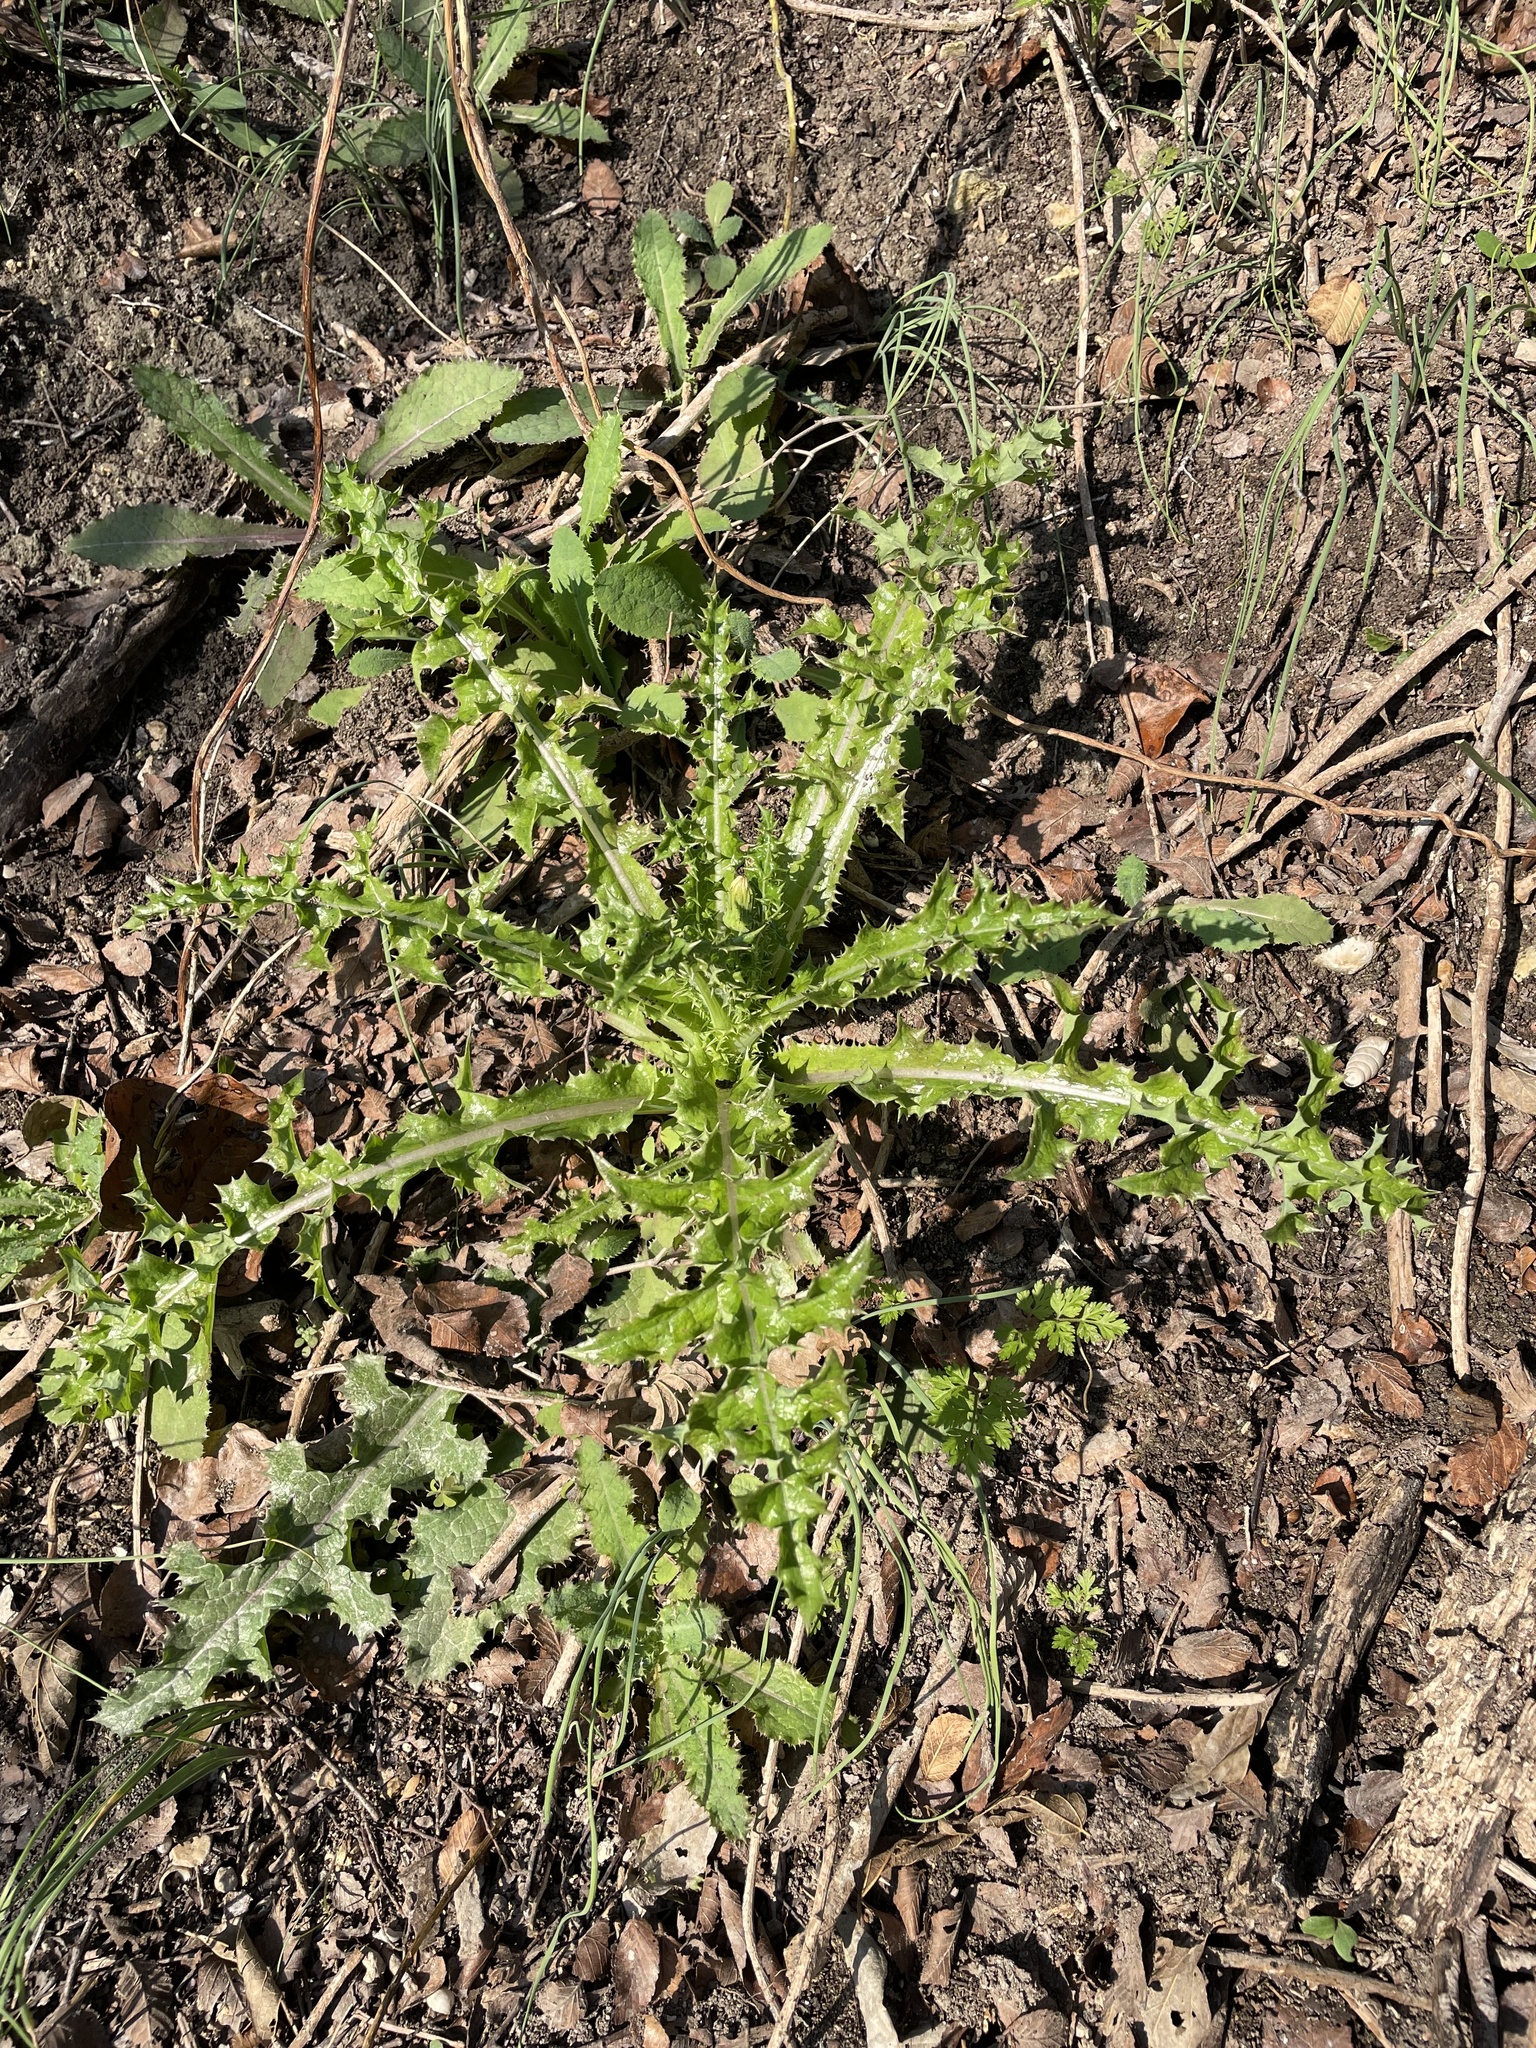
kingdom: Plantae
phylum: Tracheophyta
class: Magnoliopsida
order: Asterales
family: Asteraceae
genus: Sonchus
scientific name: Sonchus asper
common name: Prickly sow-thistle
